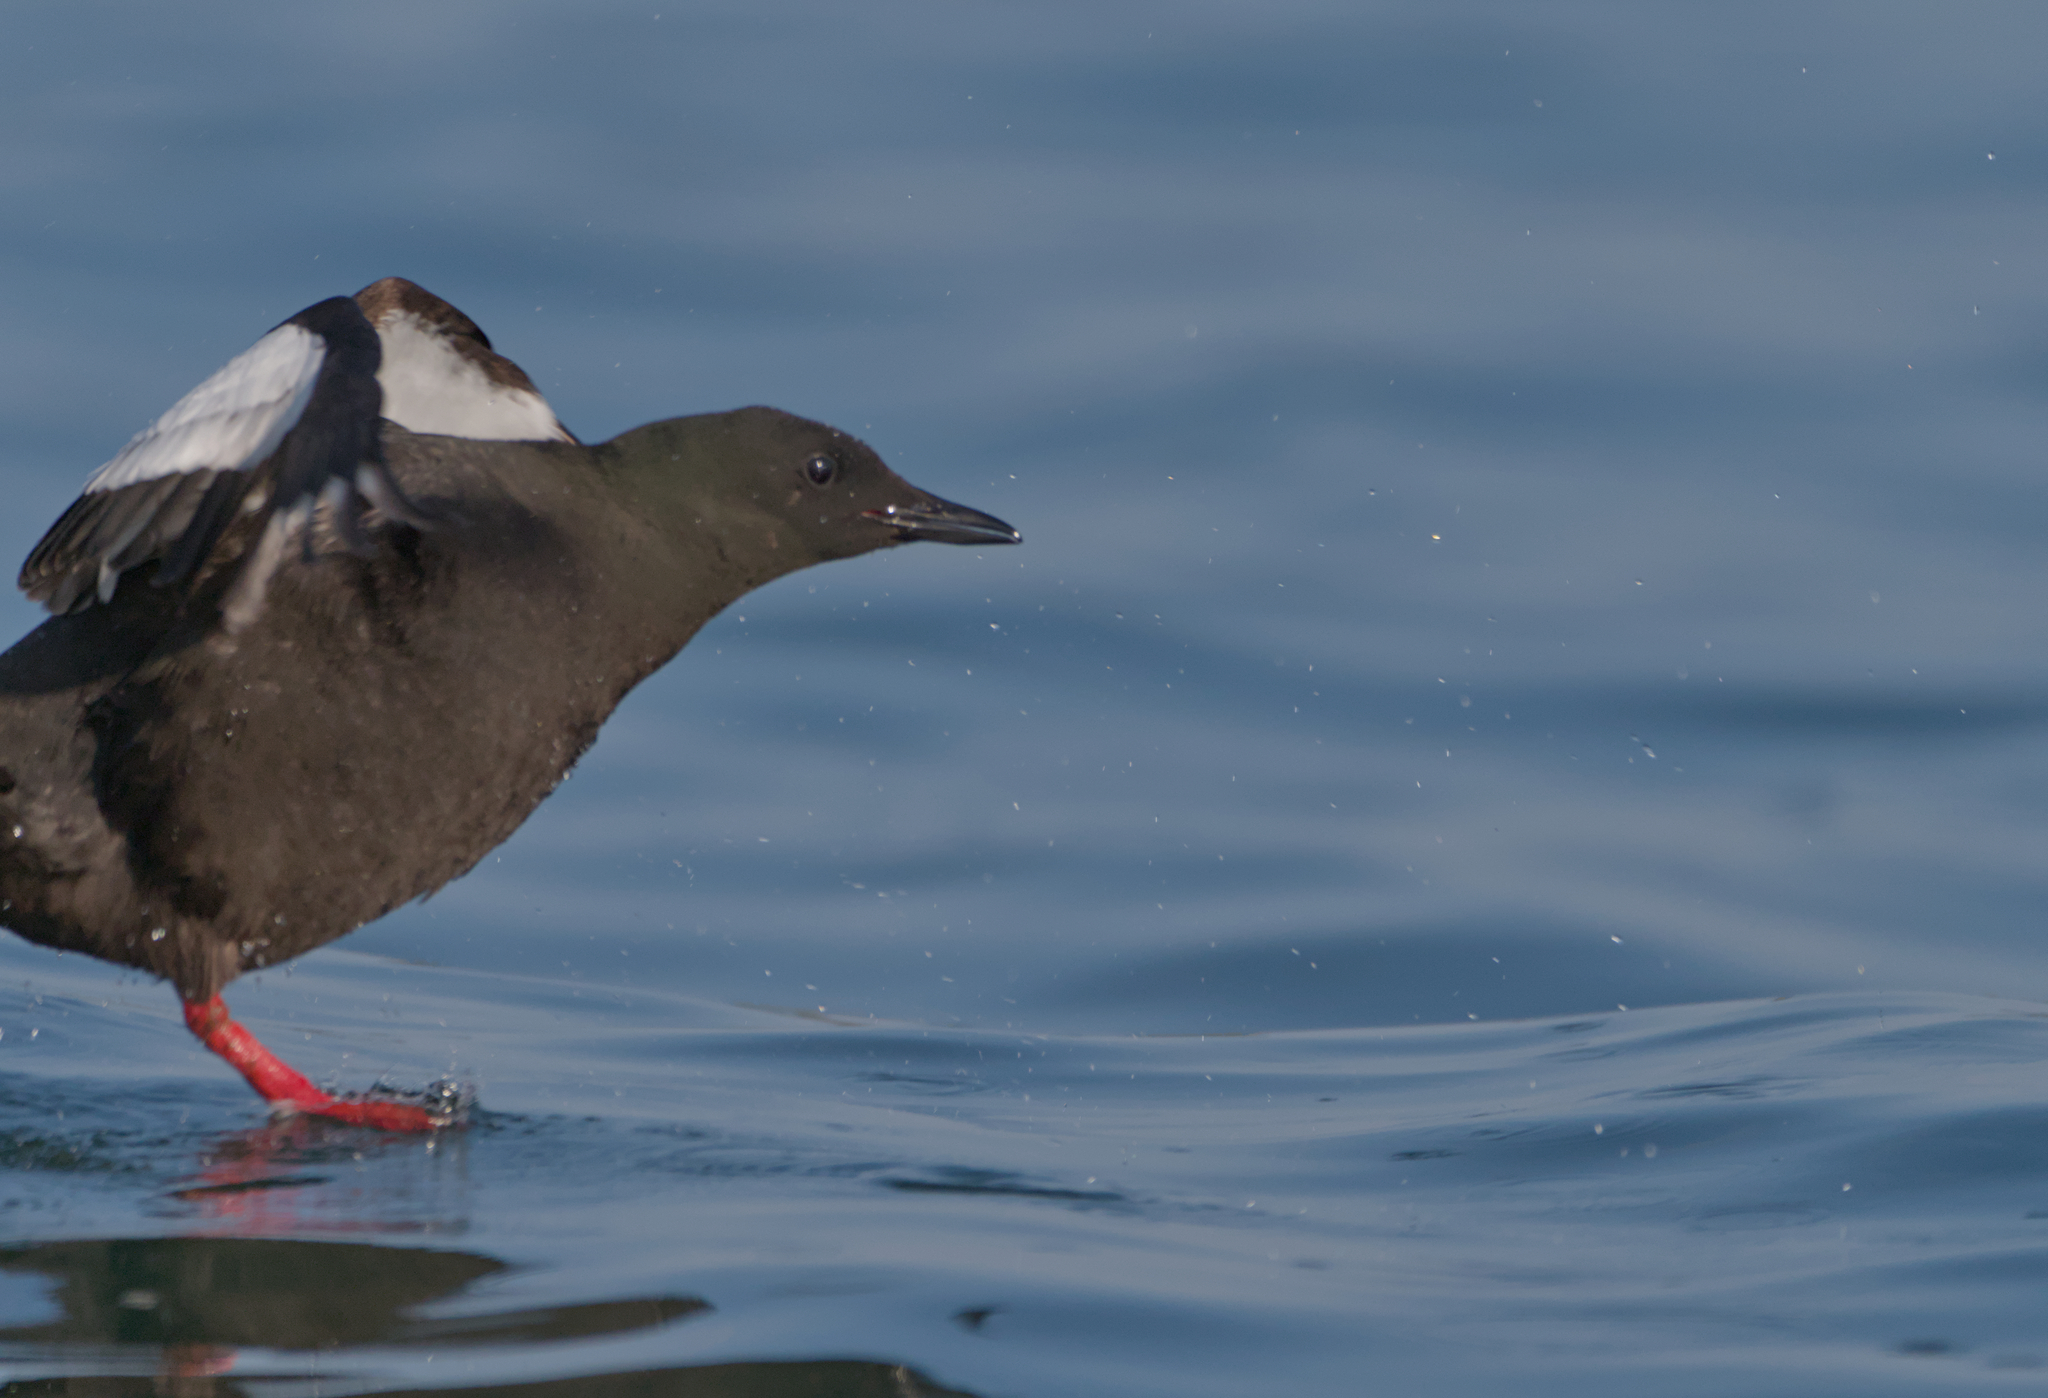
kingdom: Animalia
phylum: Chordata
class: Aves
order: Charadriiformes
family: Alcidae
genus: Cepphus
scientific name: Cepphus grylle
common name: Black guillemot
